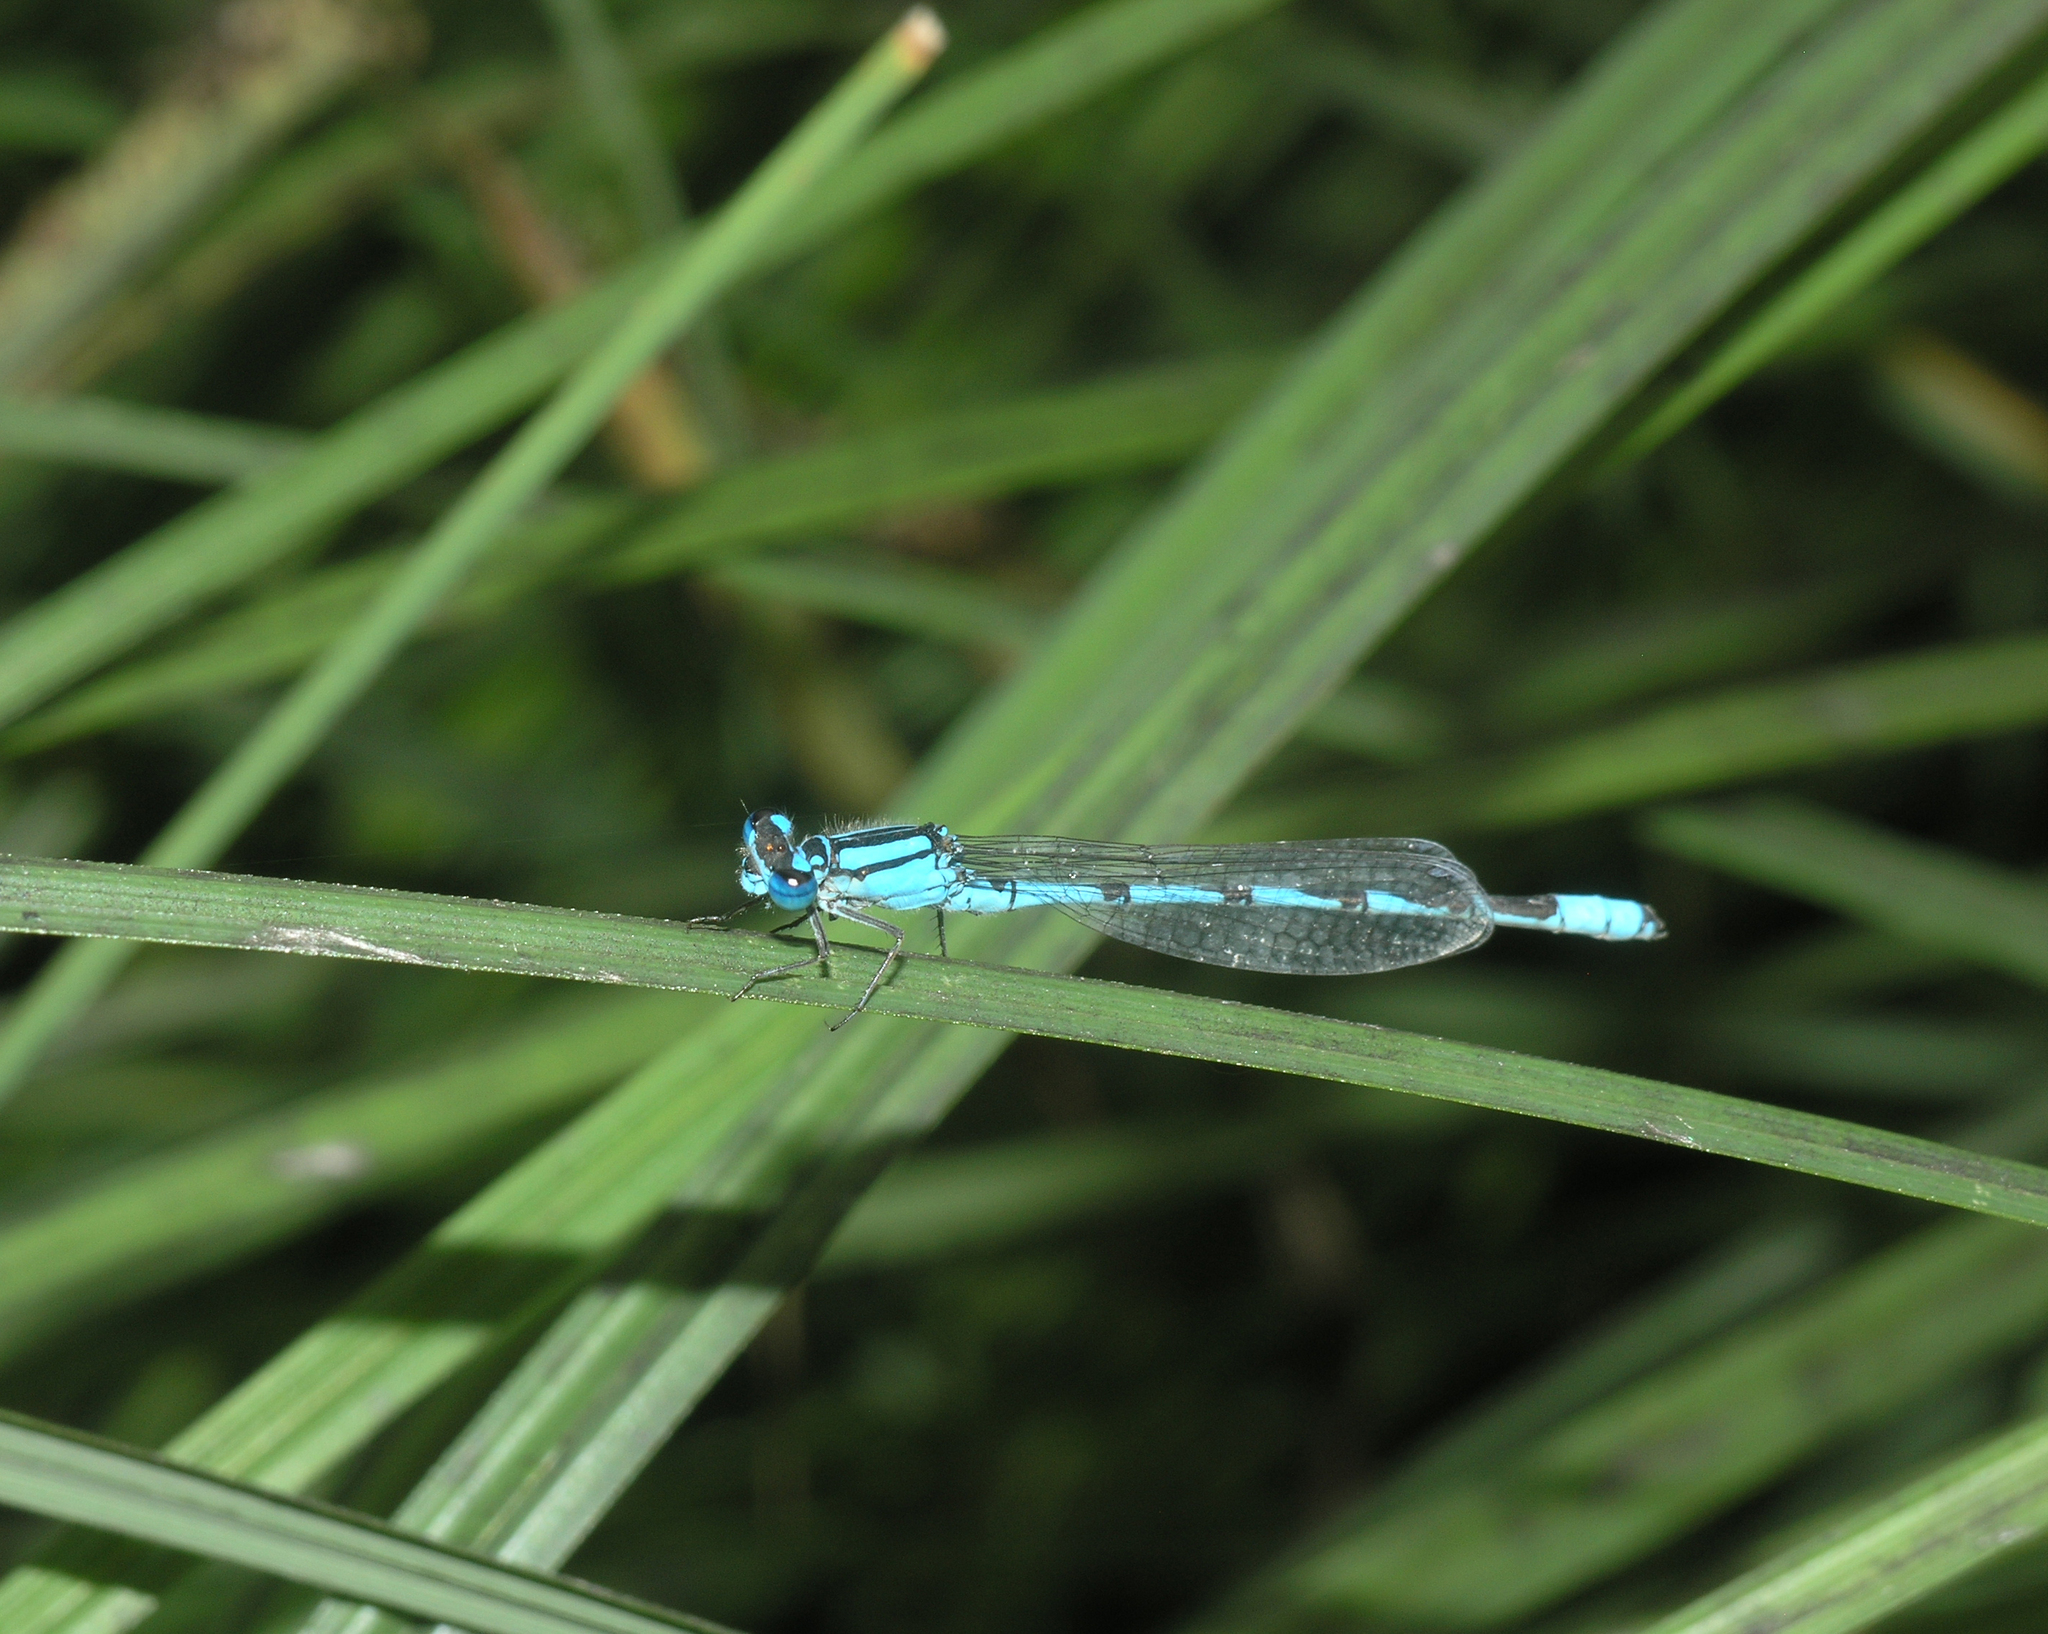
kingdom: Animalia
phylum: Arthropoda
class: Insecta
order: Odonata
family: Coenagrionidae
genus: Enallagma
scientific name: Enallagma cyathigerum
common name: Common blue damselfly
